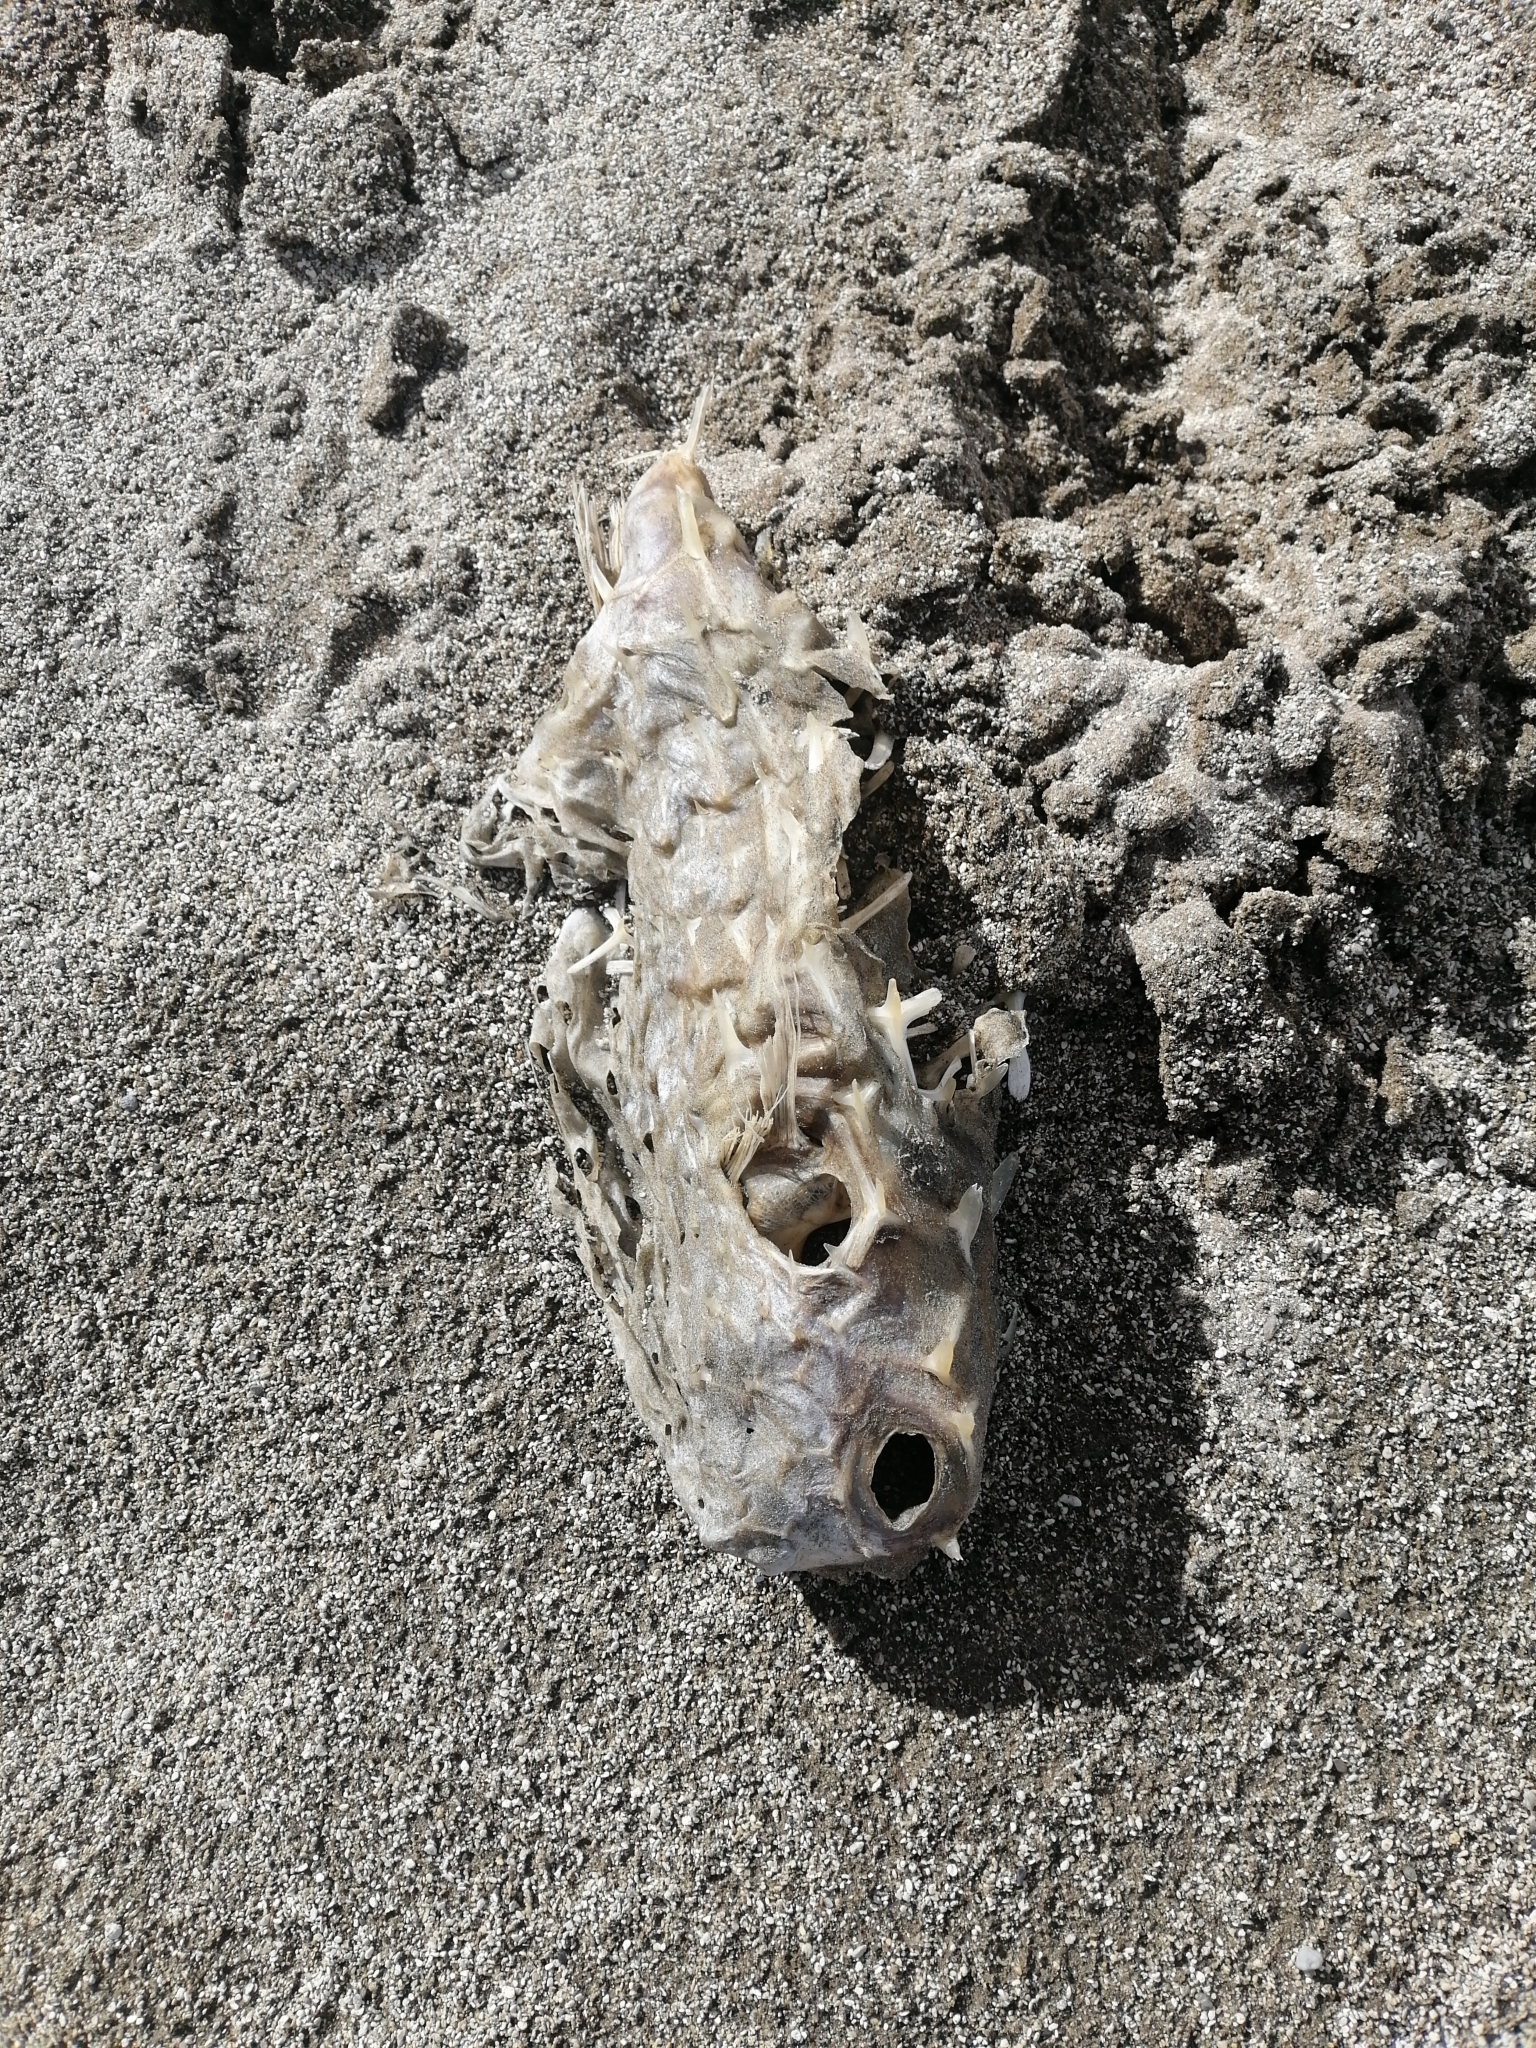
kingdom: Animalia
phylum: Chordata
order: Tetraodontiformes
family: Diodontidae
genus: Allomycterus
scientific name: Allomycterus pilatus
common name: No common name
